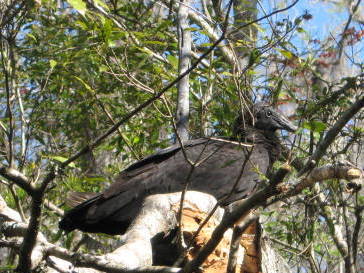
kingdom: Animalia
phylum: Chordata
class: Aves
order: Accipitriformes
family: Cathartidae
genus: Coragyps
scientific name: Coragyps atratus
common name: Black vulture
